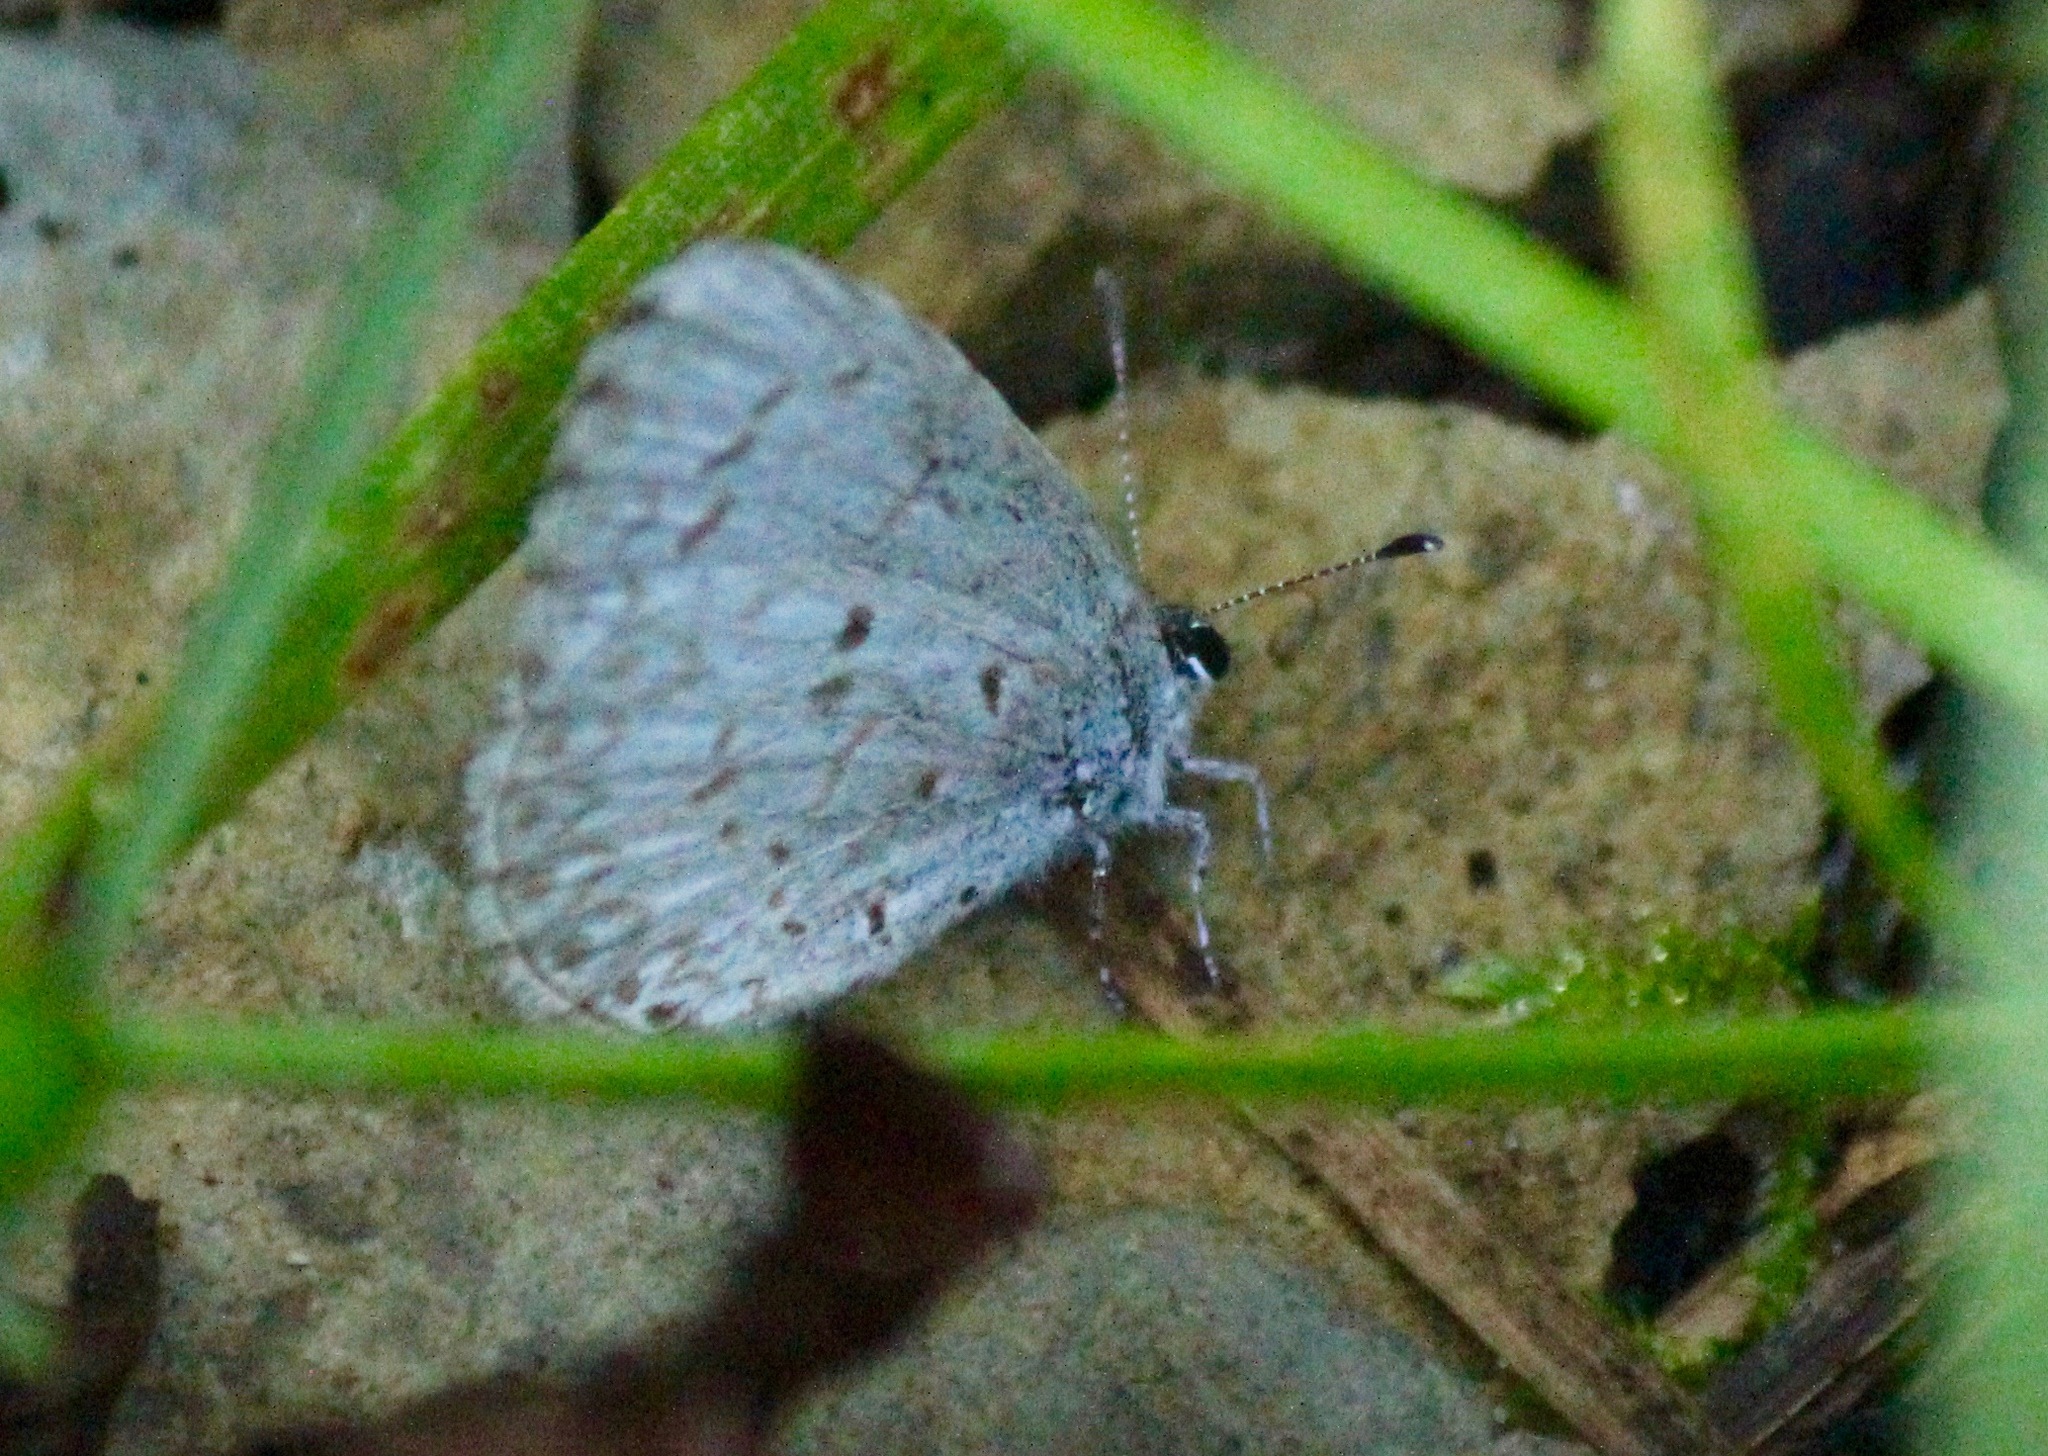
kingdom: Animalia
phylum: Arthropoda
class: Insecta
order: Lepidoptera
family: Lycaenidae
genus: Celastrina
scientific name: Celastrina lucia
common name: Lucia azure
